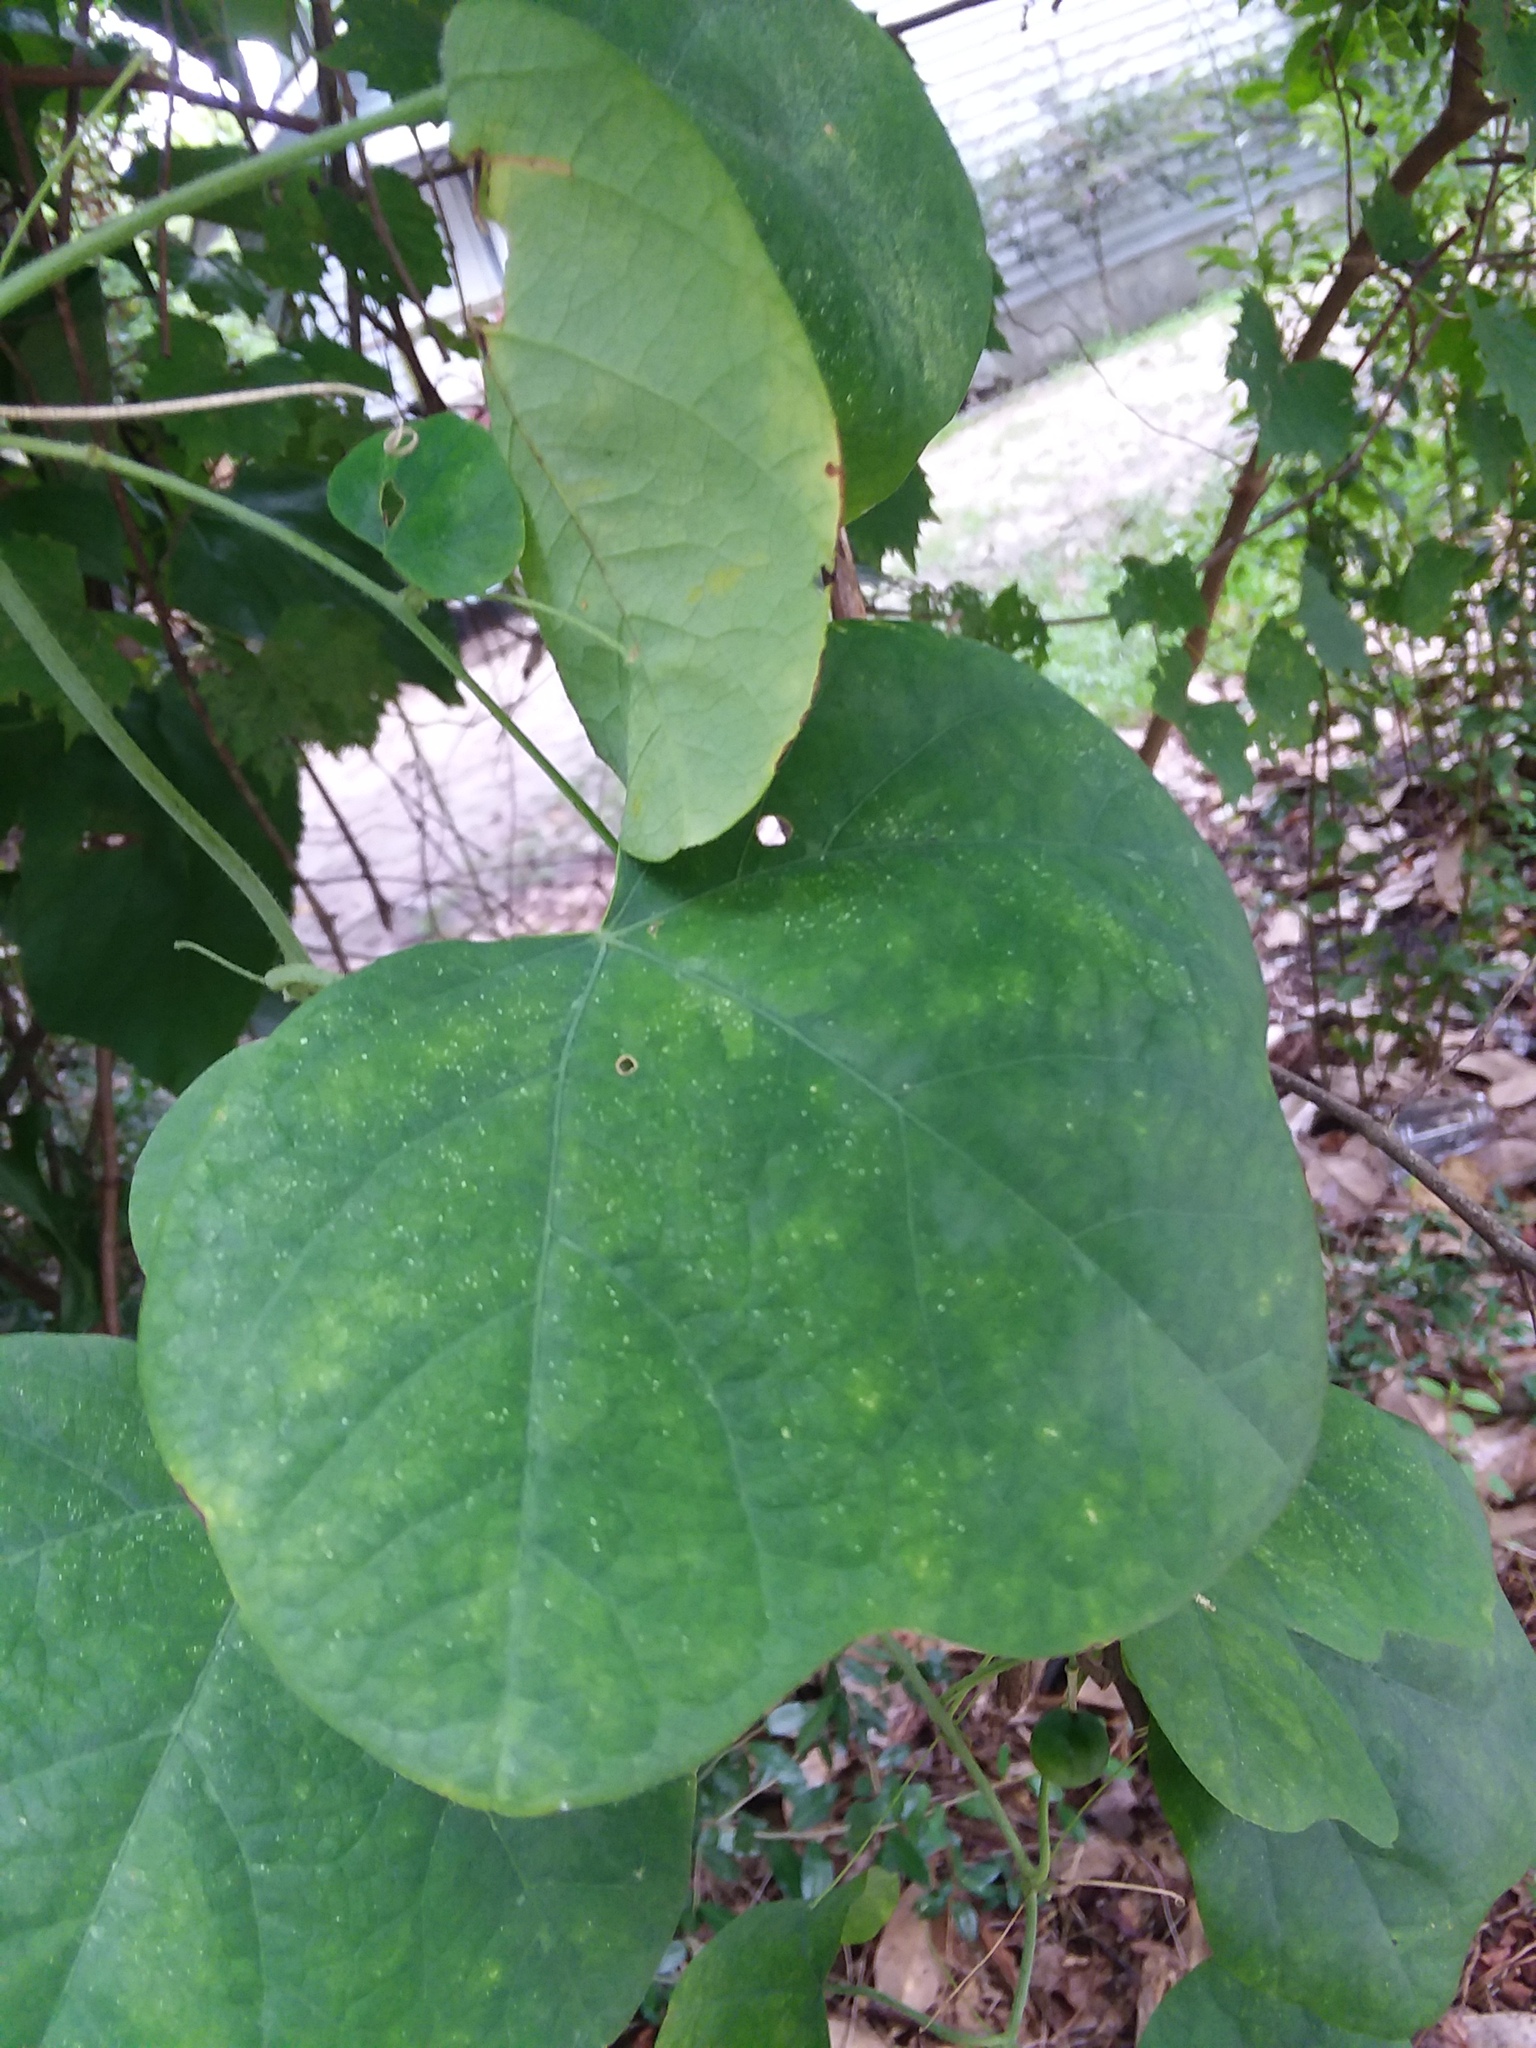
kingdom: Plantae
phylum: Tracheophyta
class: Magnoliopsida
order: Malpighiales
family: Passifloraceae
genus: Passiflora
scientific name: Passiflora lutea
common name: Yellow passionflower
